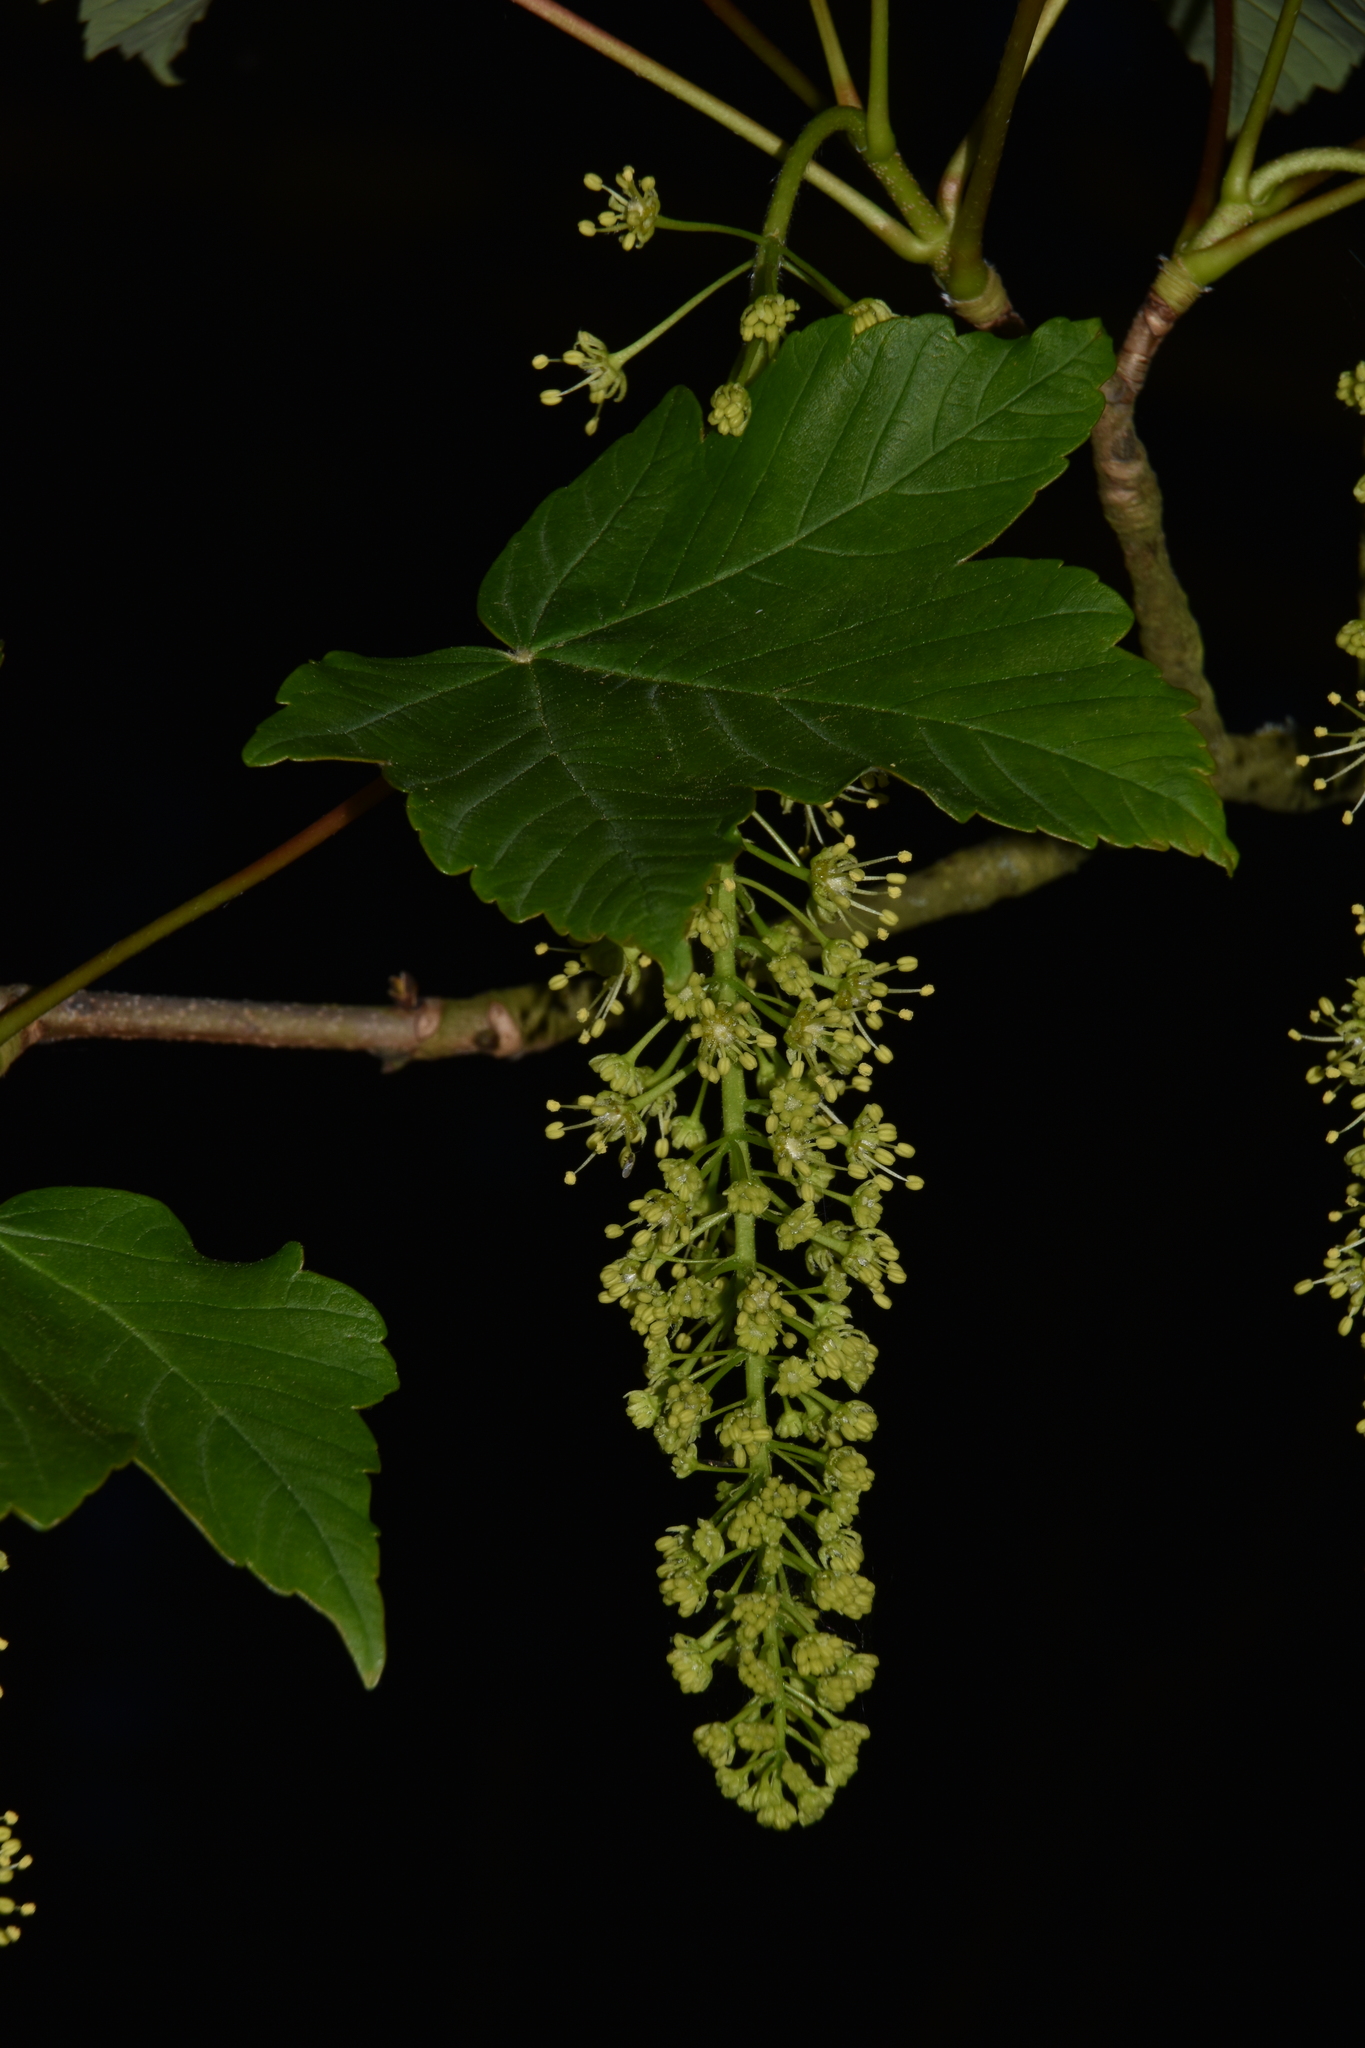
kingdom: Plantae
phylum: Tracheophyta
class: Magnoliopsida
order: Sapindales
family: Sapindaceae
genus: Acer
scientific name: Acer pseudoplatanus
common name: Sycamore
